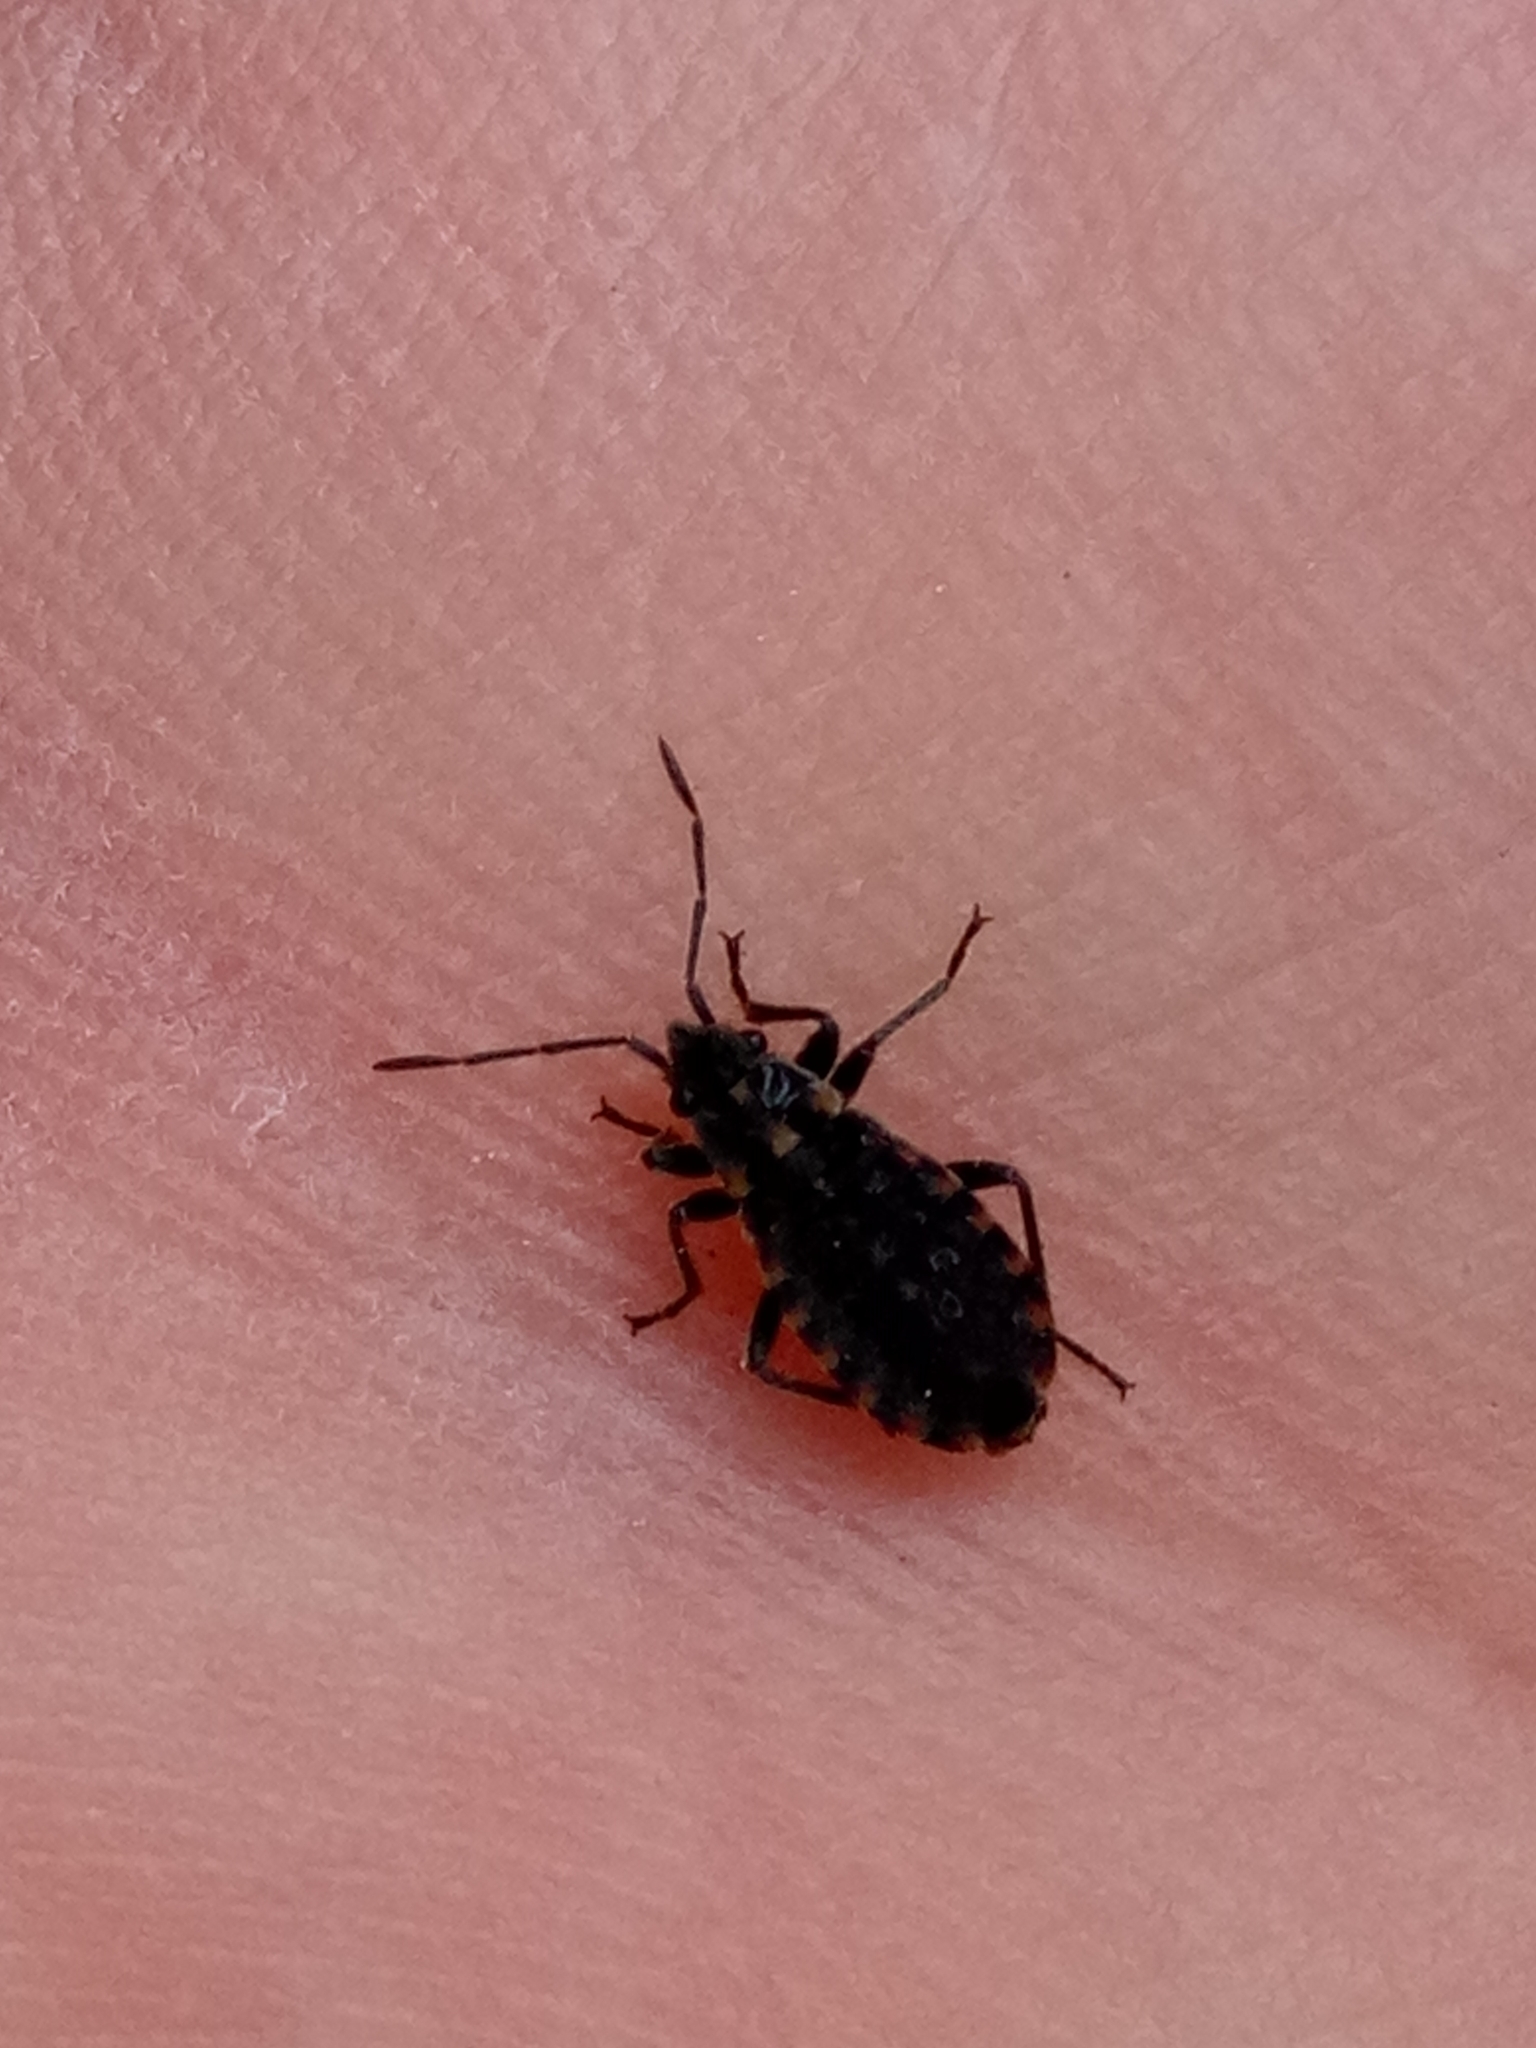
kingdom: Animalia
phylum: Arthropoda
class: Insecta
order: Hemiptera
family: Lygaeidae
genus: Apterola
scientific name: Apterola kunckeli
